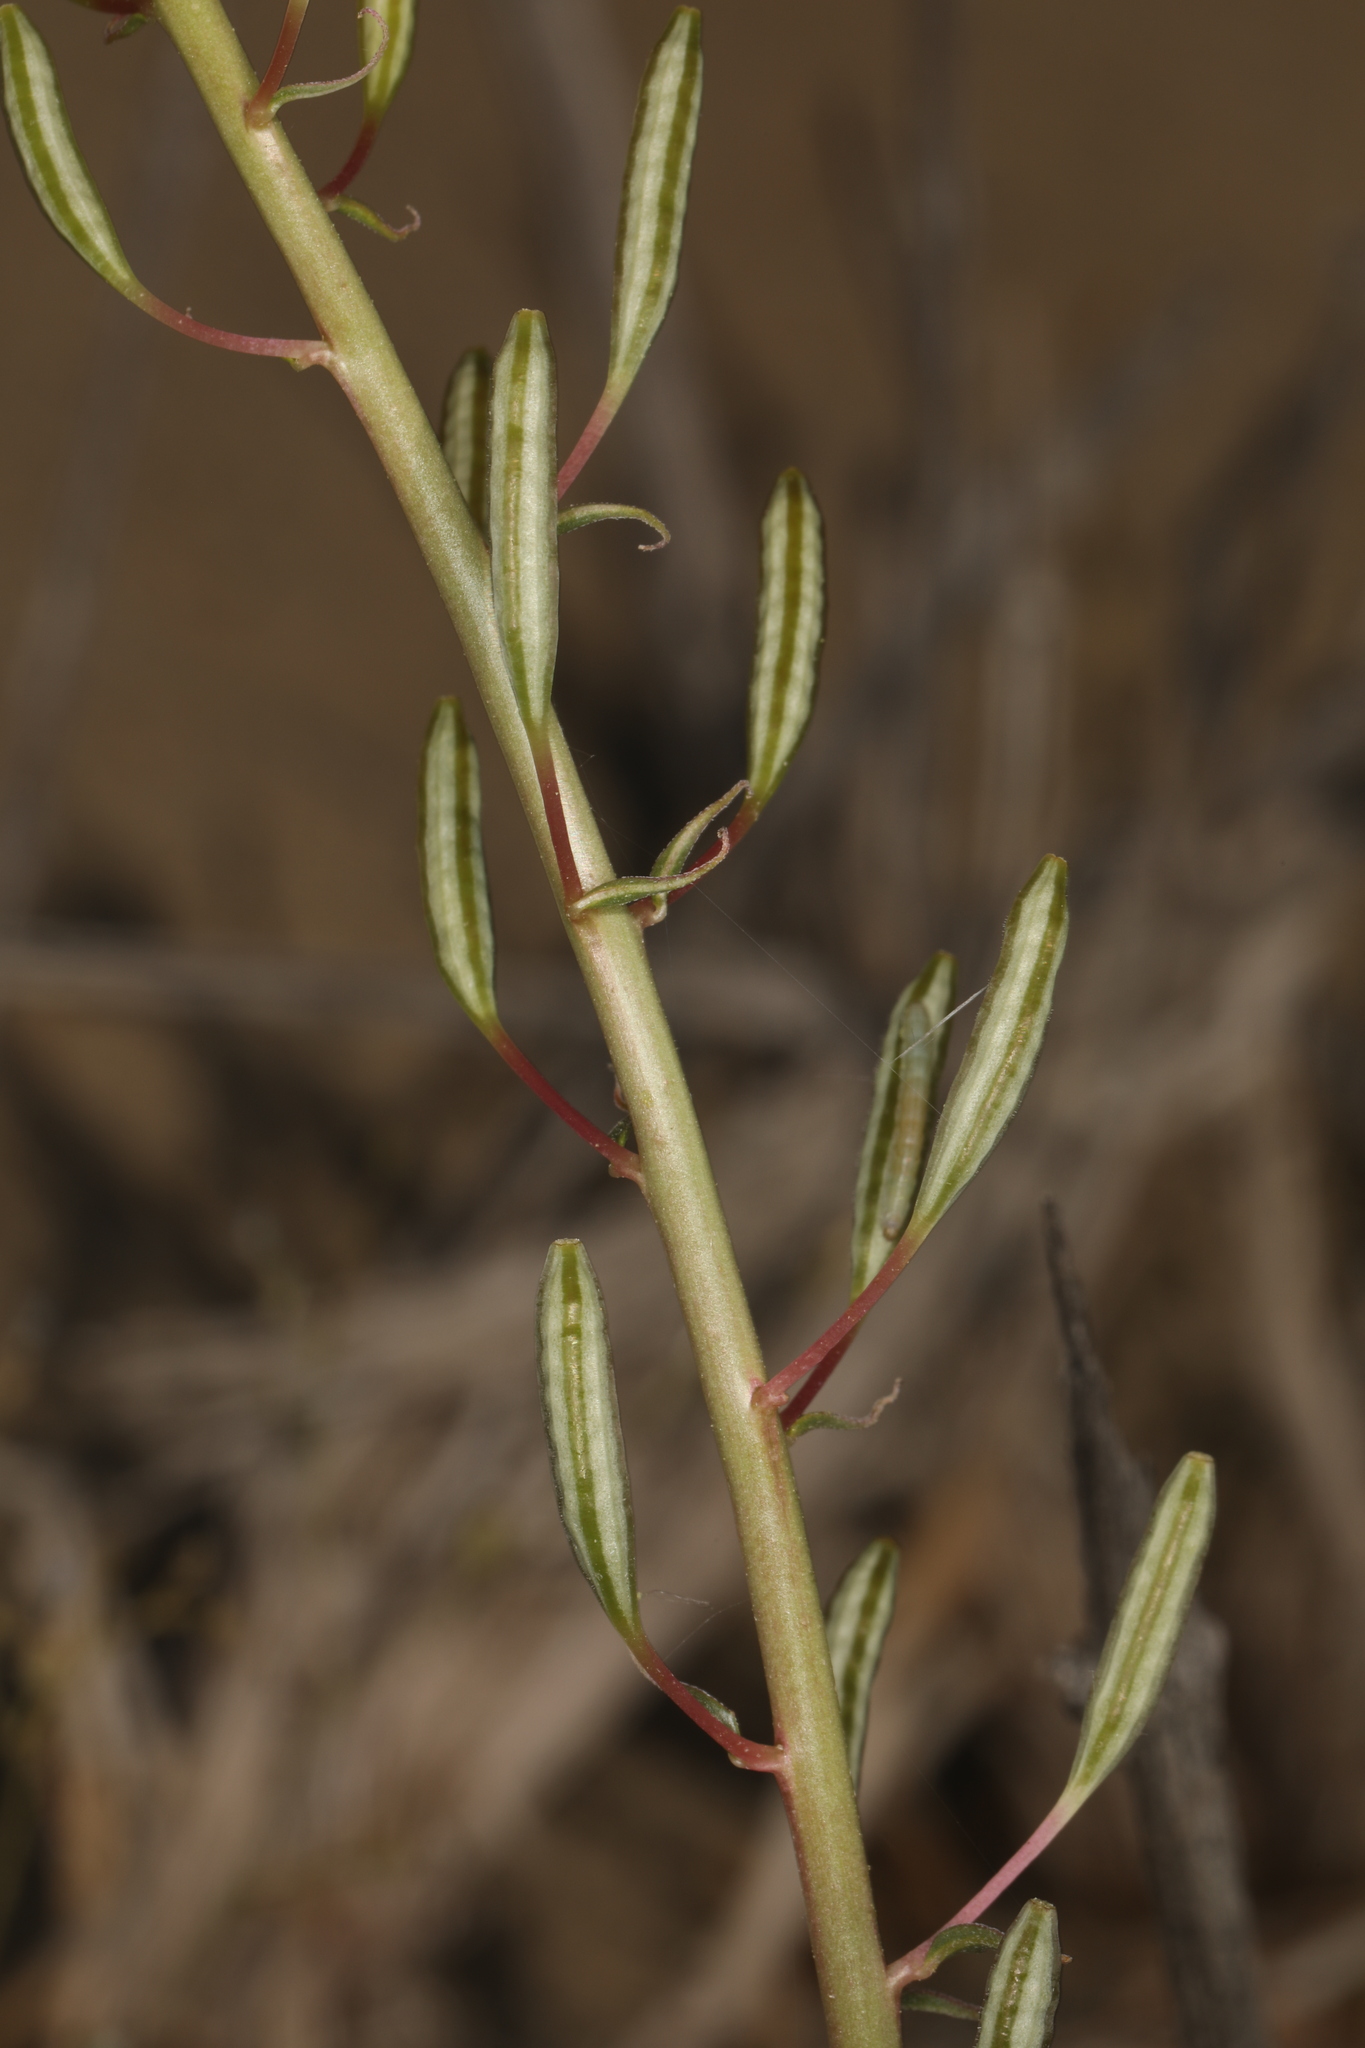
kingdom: Plantae
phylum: Tracheophyta
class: Magnoliopsida
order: Myrtales
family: Onagraceae
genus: Chylismia
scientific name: Chylismia claviformis
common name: Browneyes
